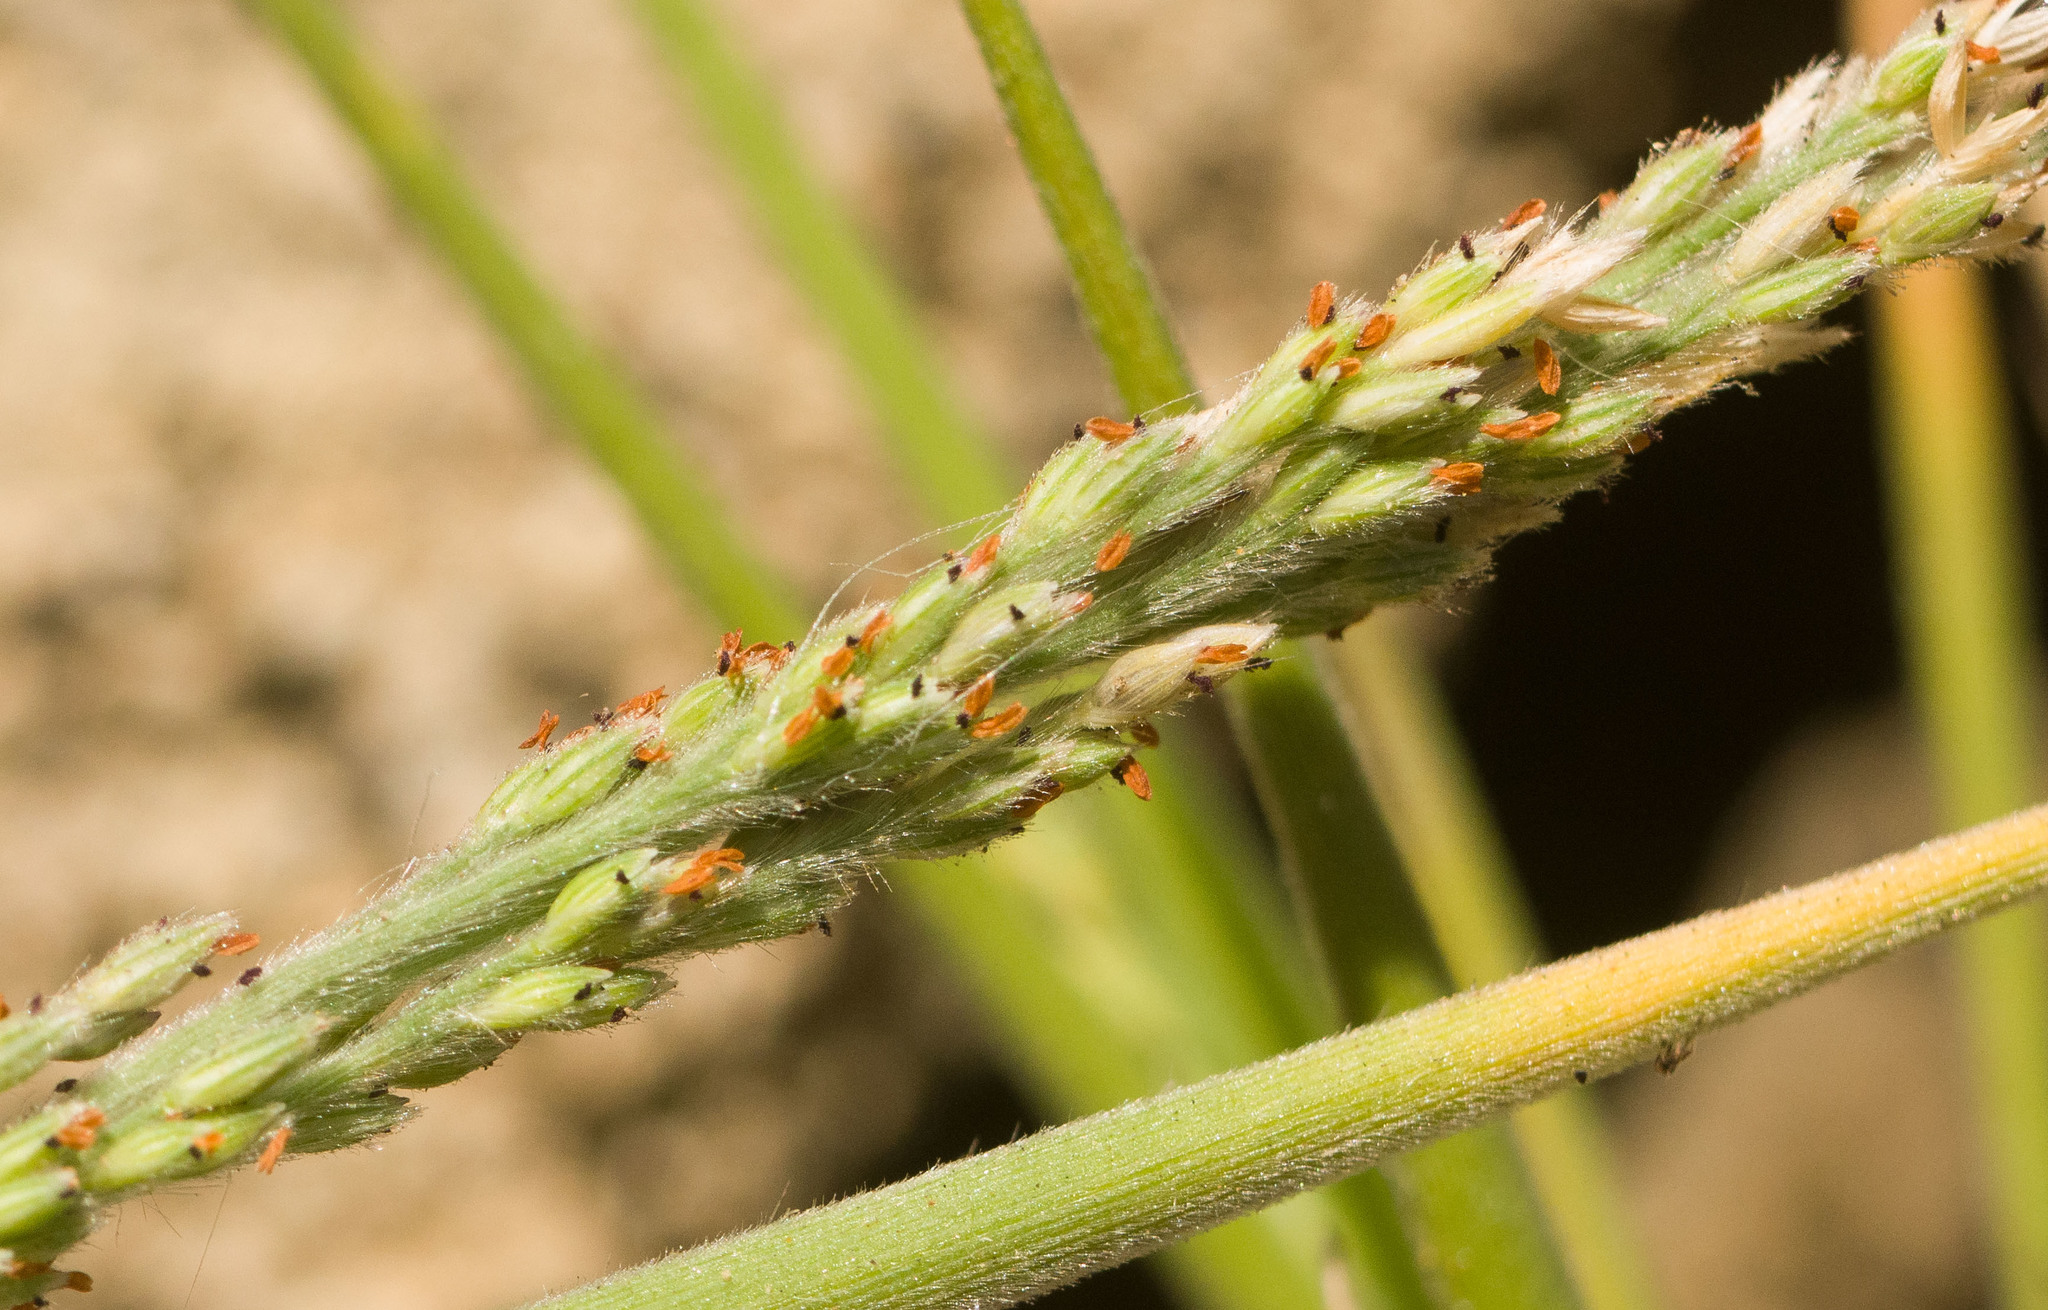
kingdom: Plantae
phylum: Tracheophyta
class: Liliopsida
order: Poales
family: Poaceae
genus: Panicum
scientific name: Panicum fauriei
